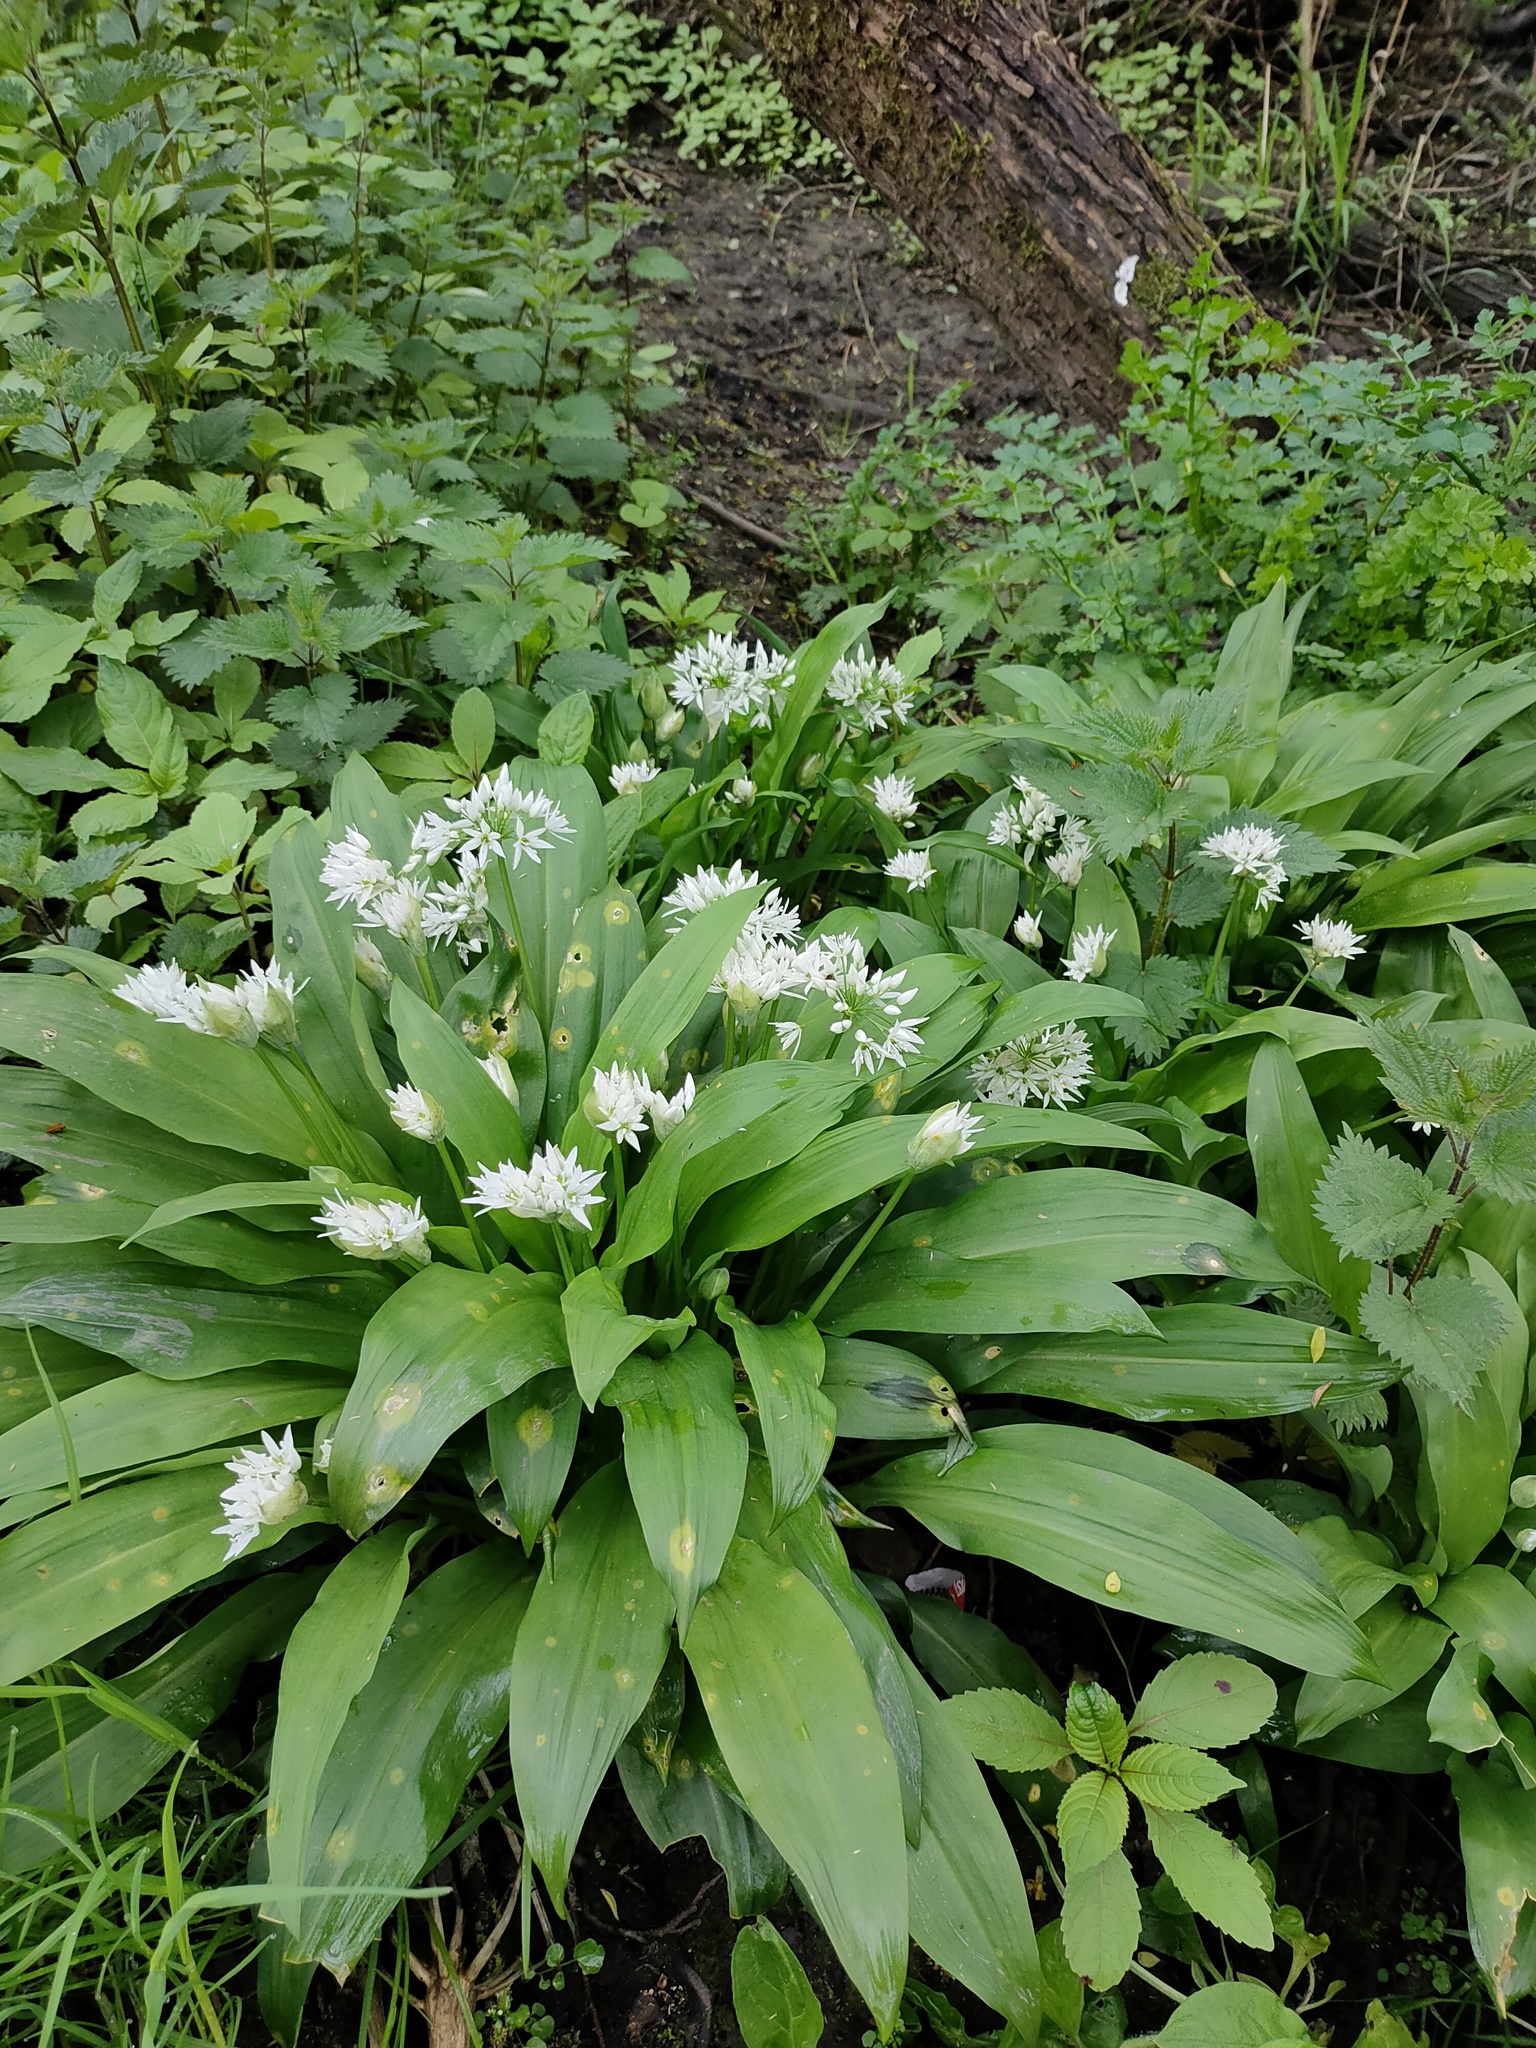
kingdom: Plantae
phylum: Tracheophyta
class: Liliopsida
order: Asparagales
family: Amaryllidaceae
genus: Allium
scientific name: Allium ursinum
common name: Ramsons
